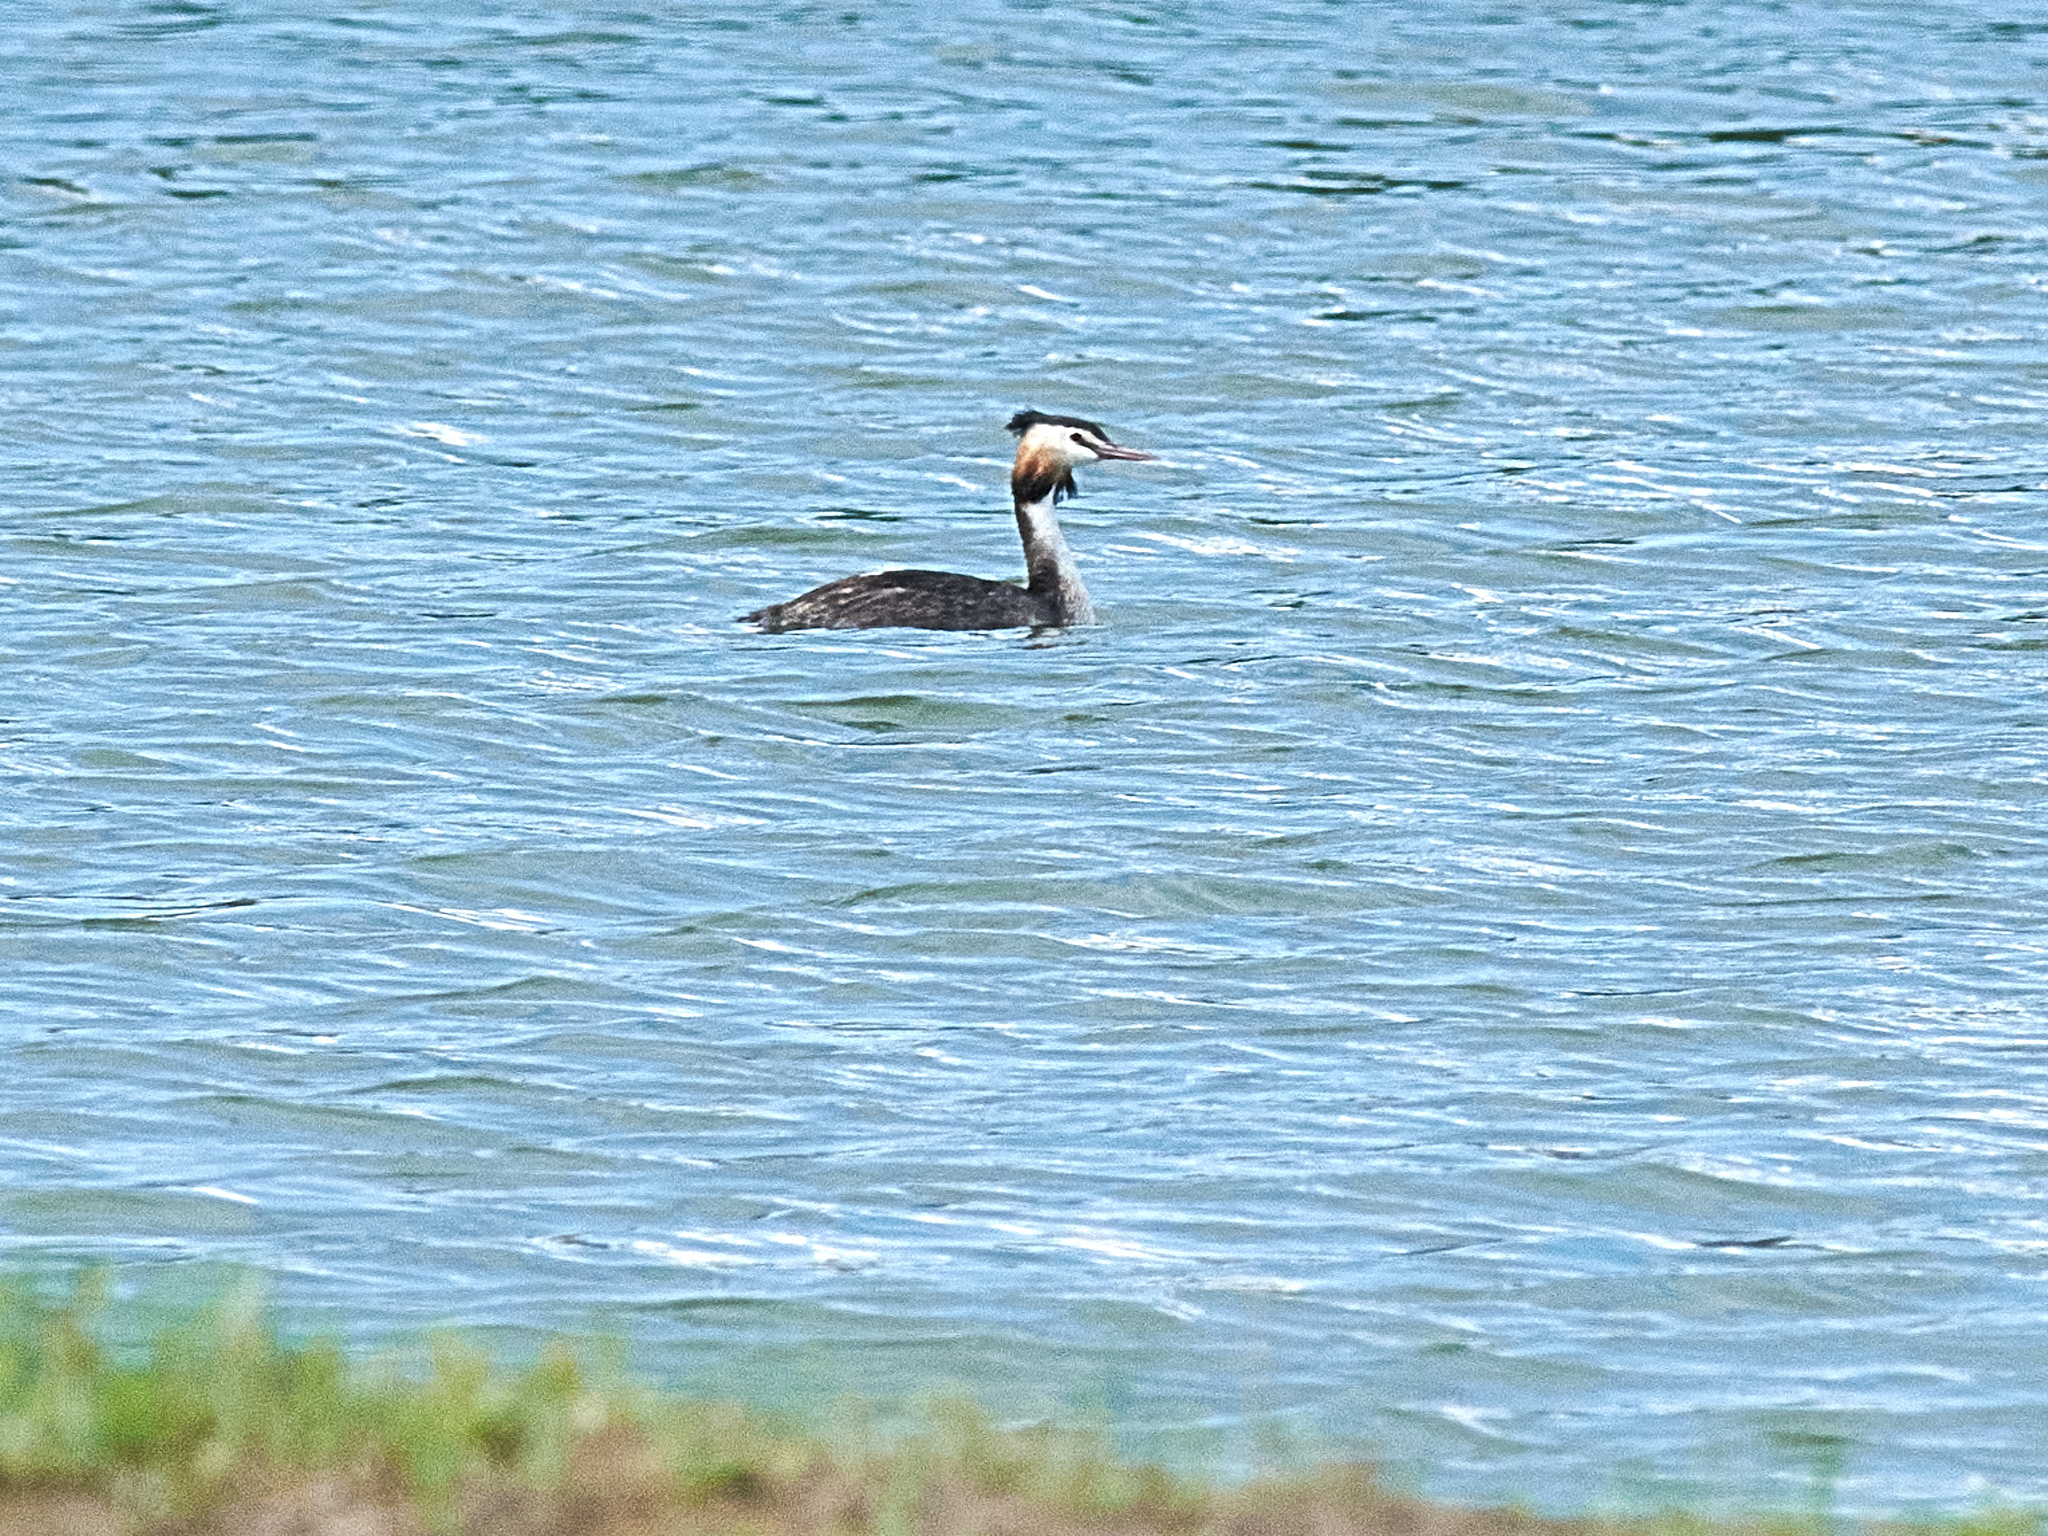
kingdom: Animalia
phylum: Chordata
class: Aves
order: Podicipediformes
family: Podicipedidae
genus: Podiceps
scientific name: Podiceps cristatus
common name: Great crested grebe
